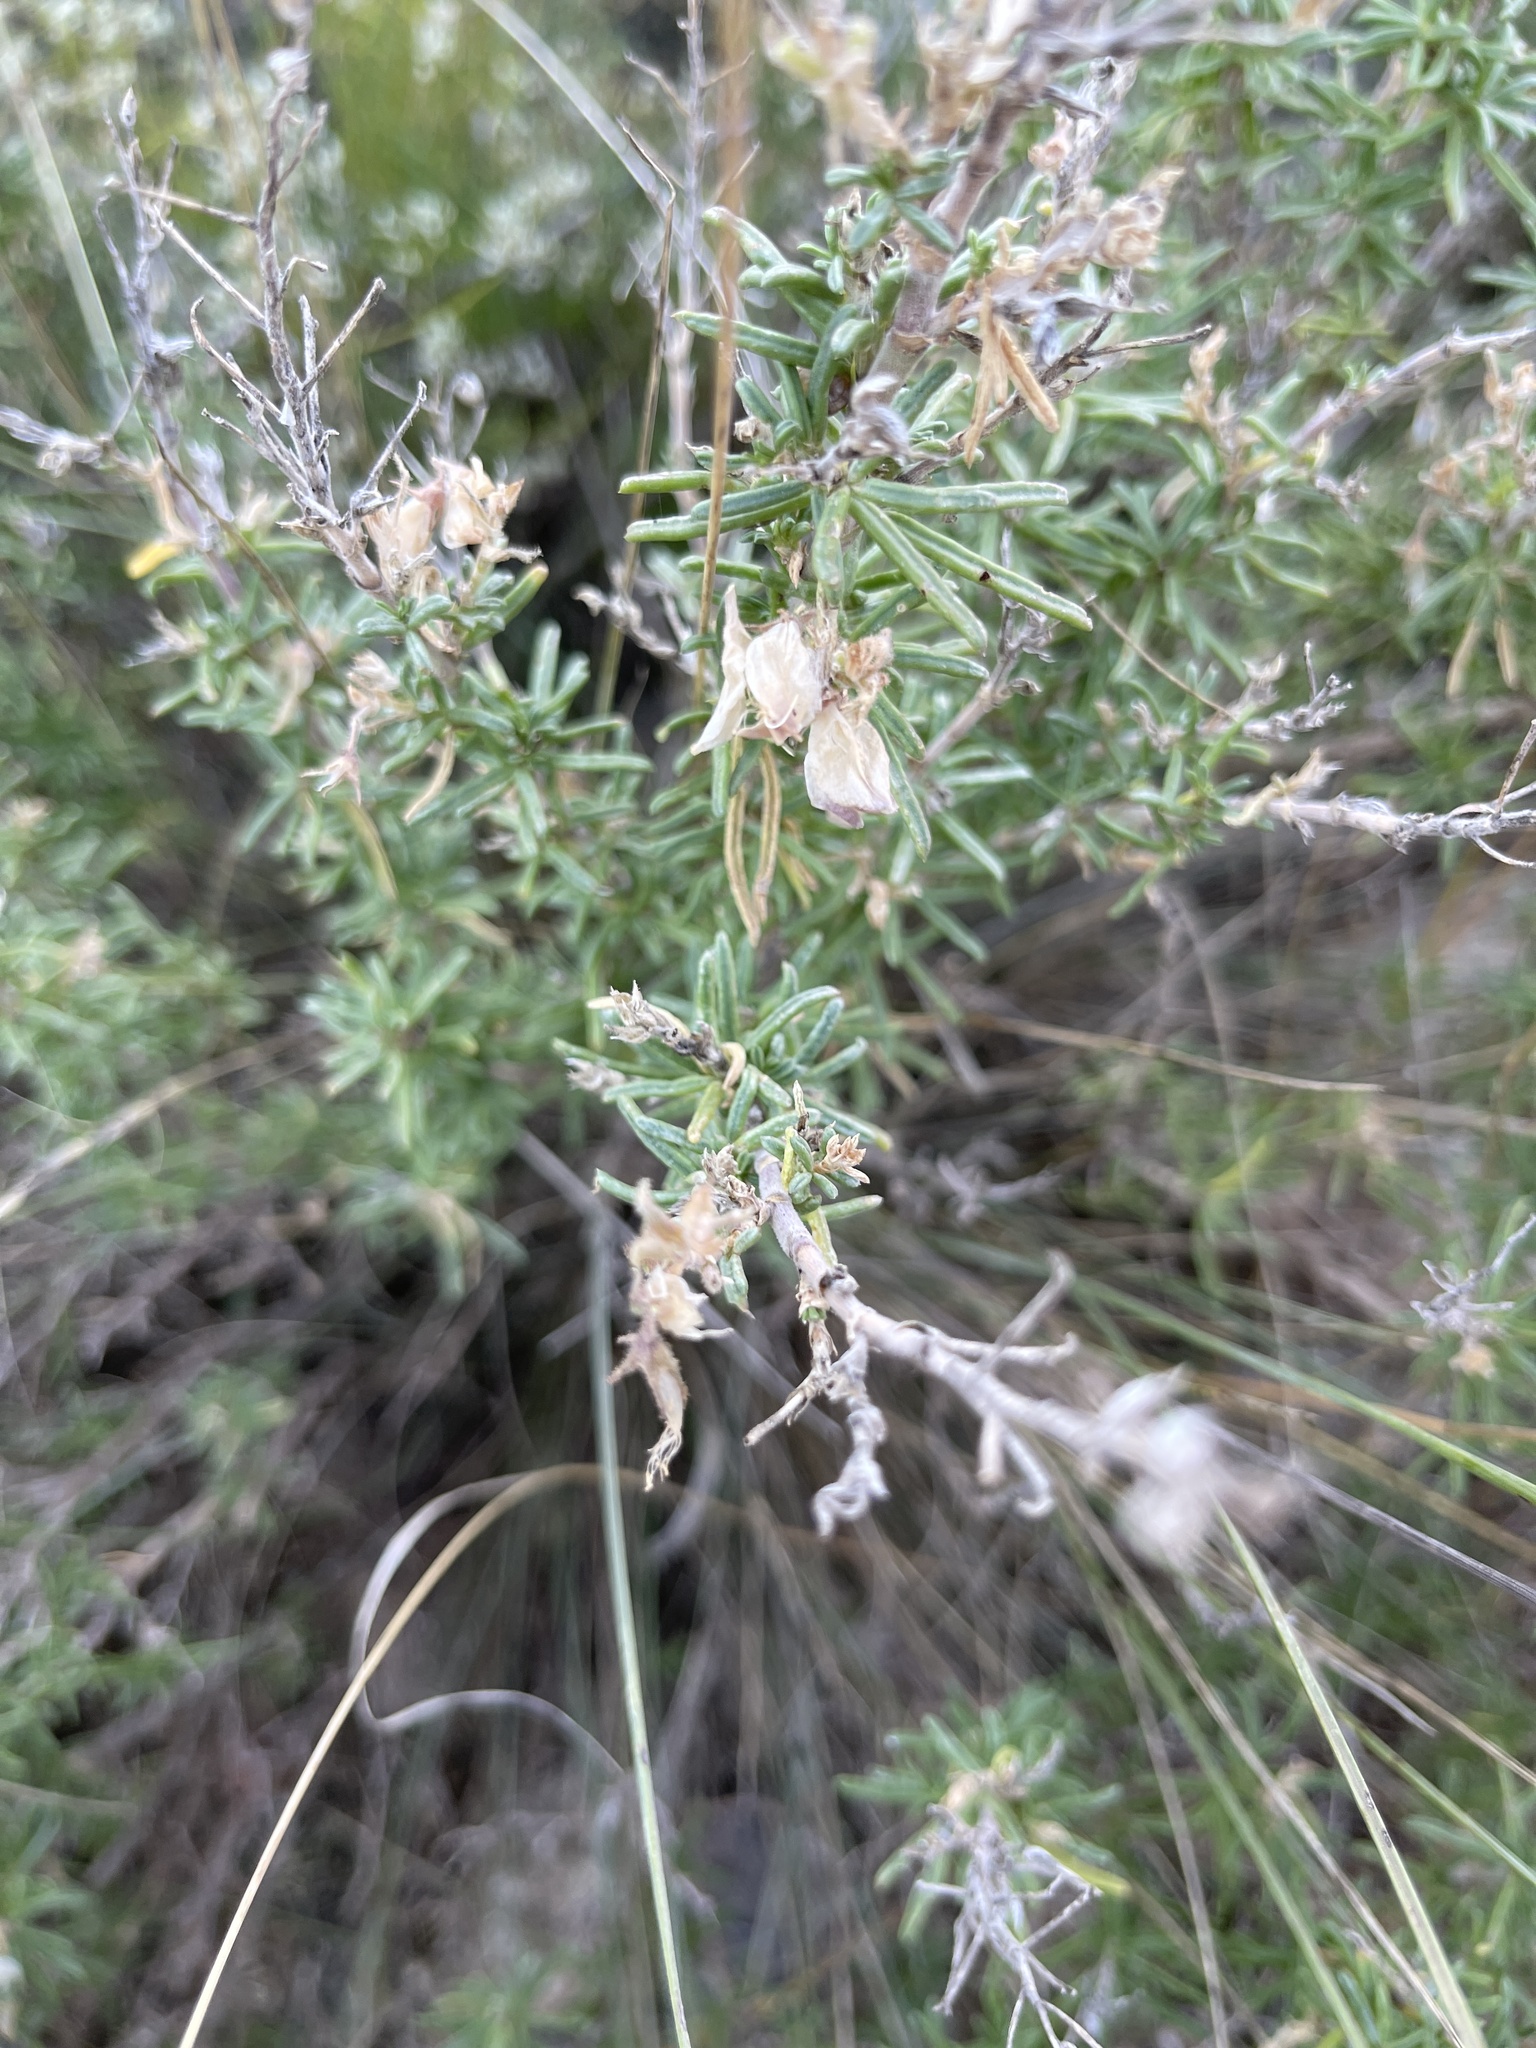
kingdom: Plantae
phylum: Tracheophyta
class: Magnoliopsida
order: Fabales
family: Fabaceae
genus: Ononis
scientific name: Ononis tridentata
